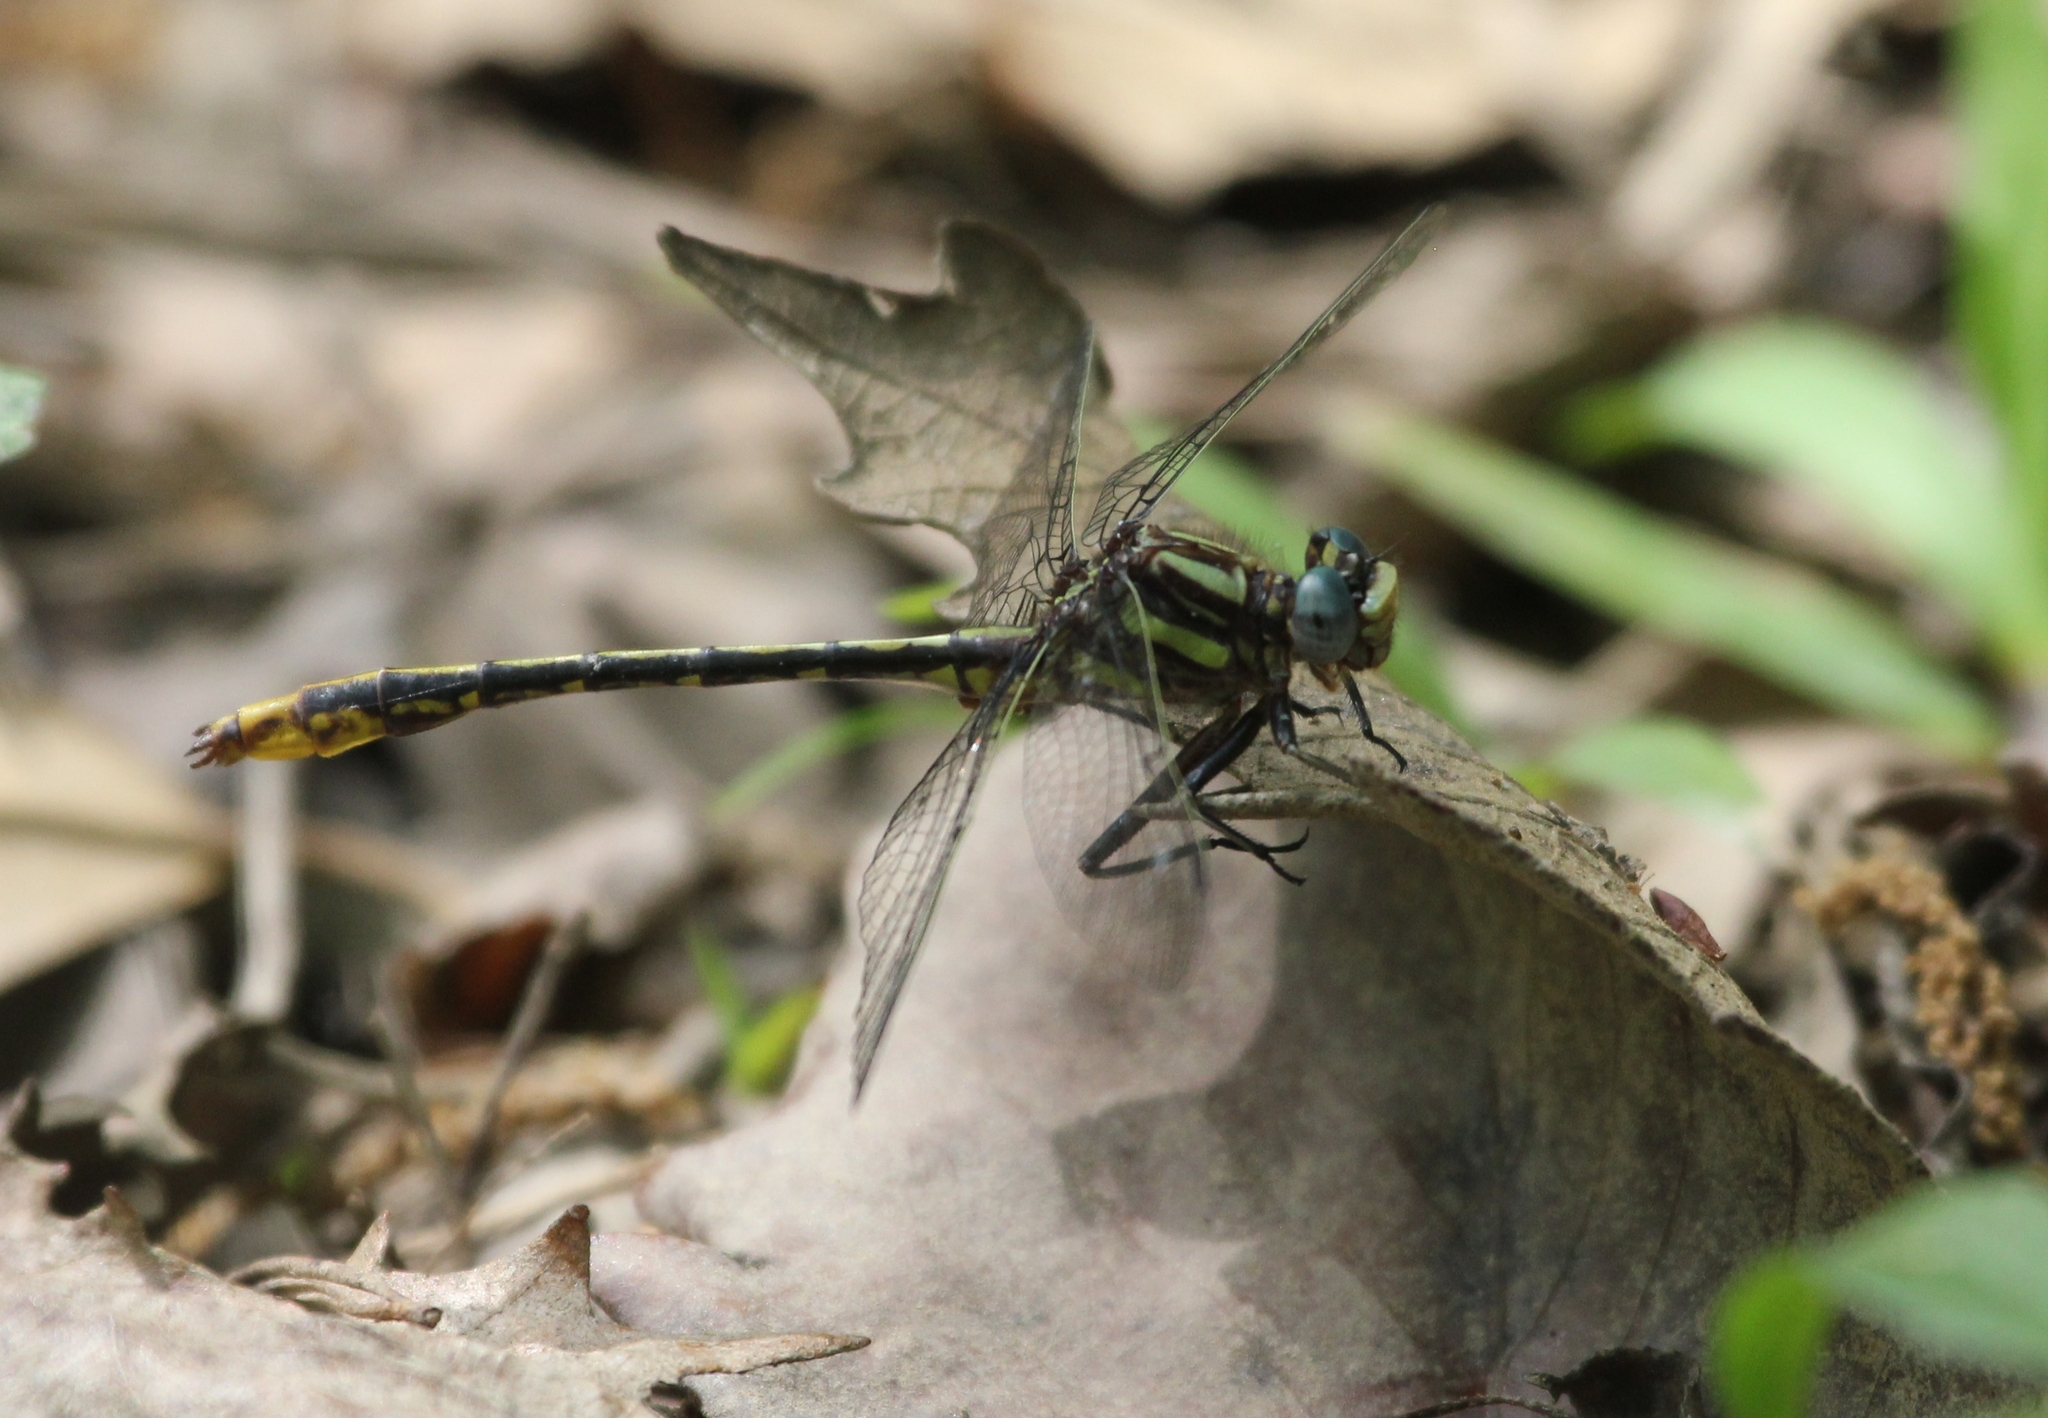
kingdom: Animalia
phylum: Arthropoda
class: Insecta
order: Odonata
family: Gomphidae
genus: Phanogomphus
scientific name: Phanogomphus exilis
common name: Lancet clubtail
